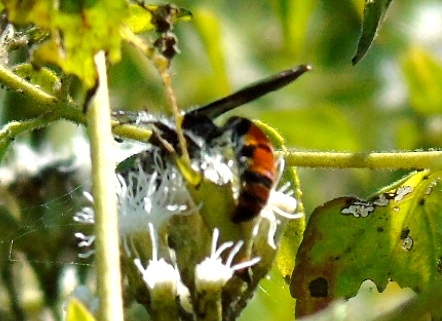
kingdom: Animalia
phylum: Arthropoda
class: Insecta
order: Hymenoptera
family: Scoliidae
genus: Dielis
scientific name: Dielis tolteca
